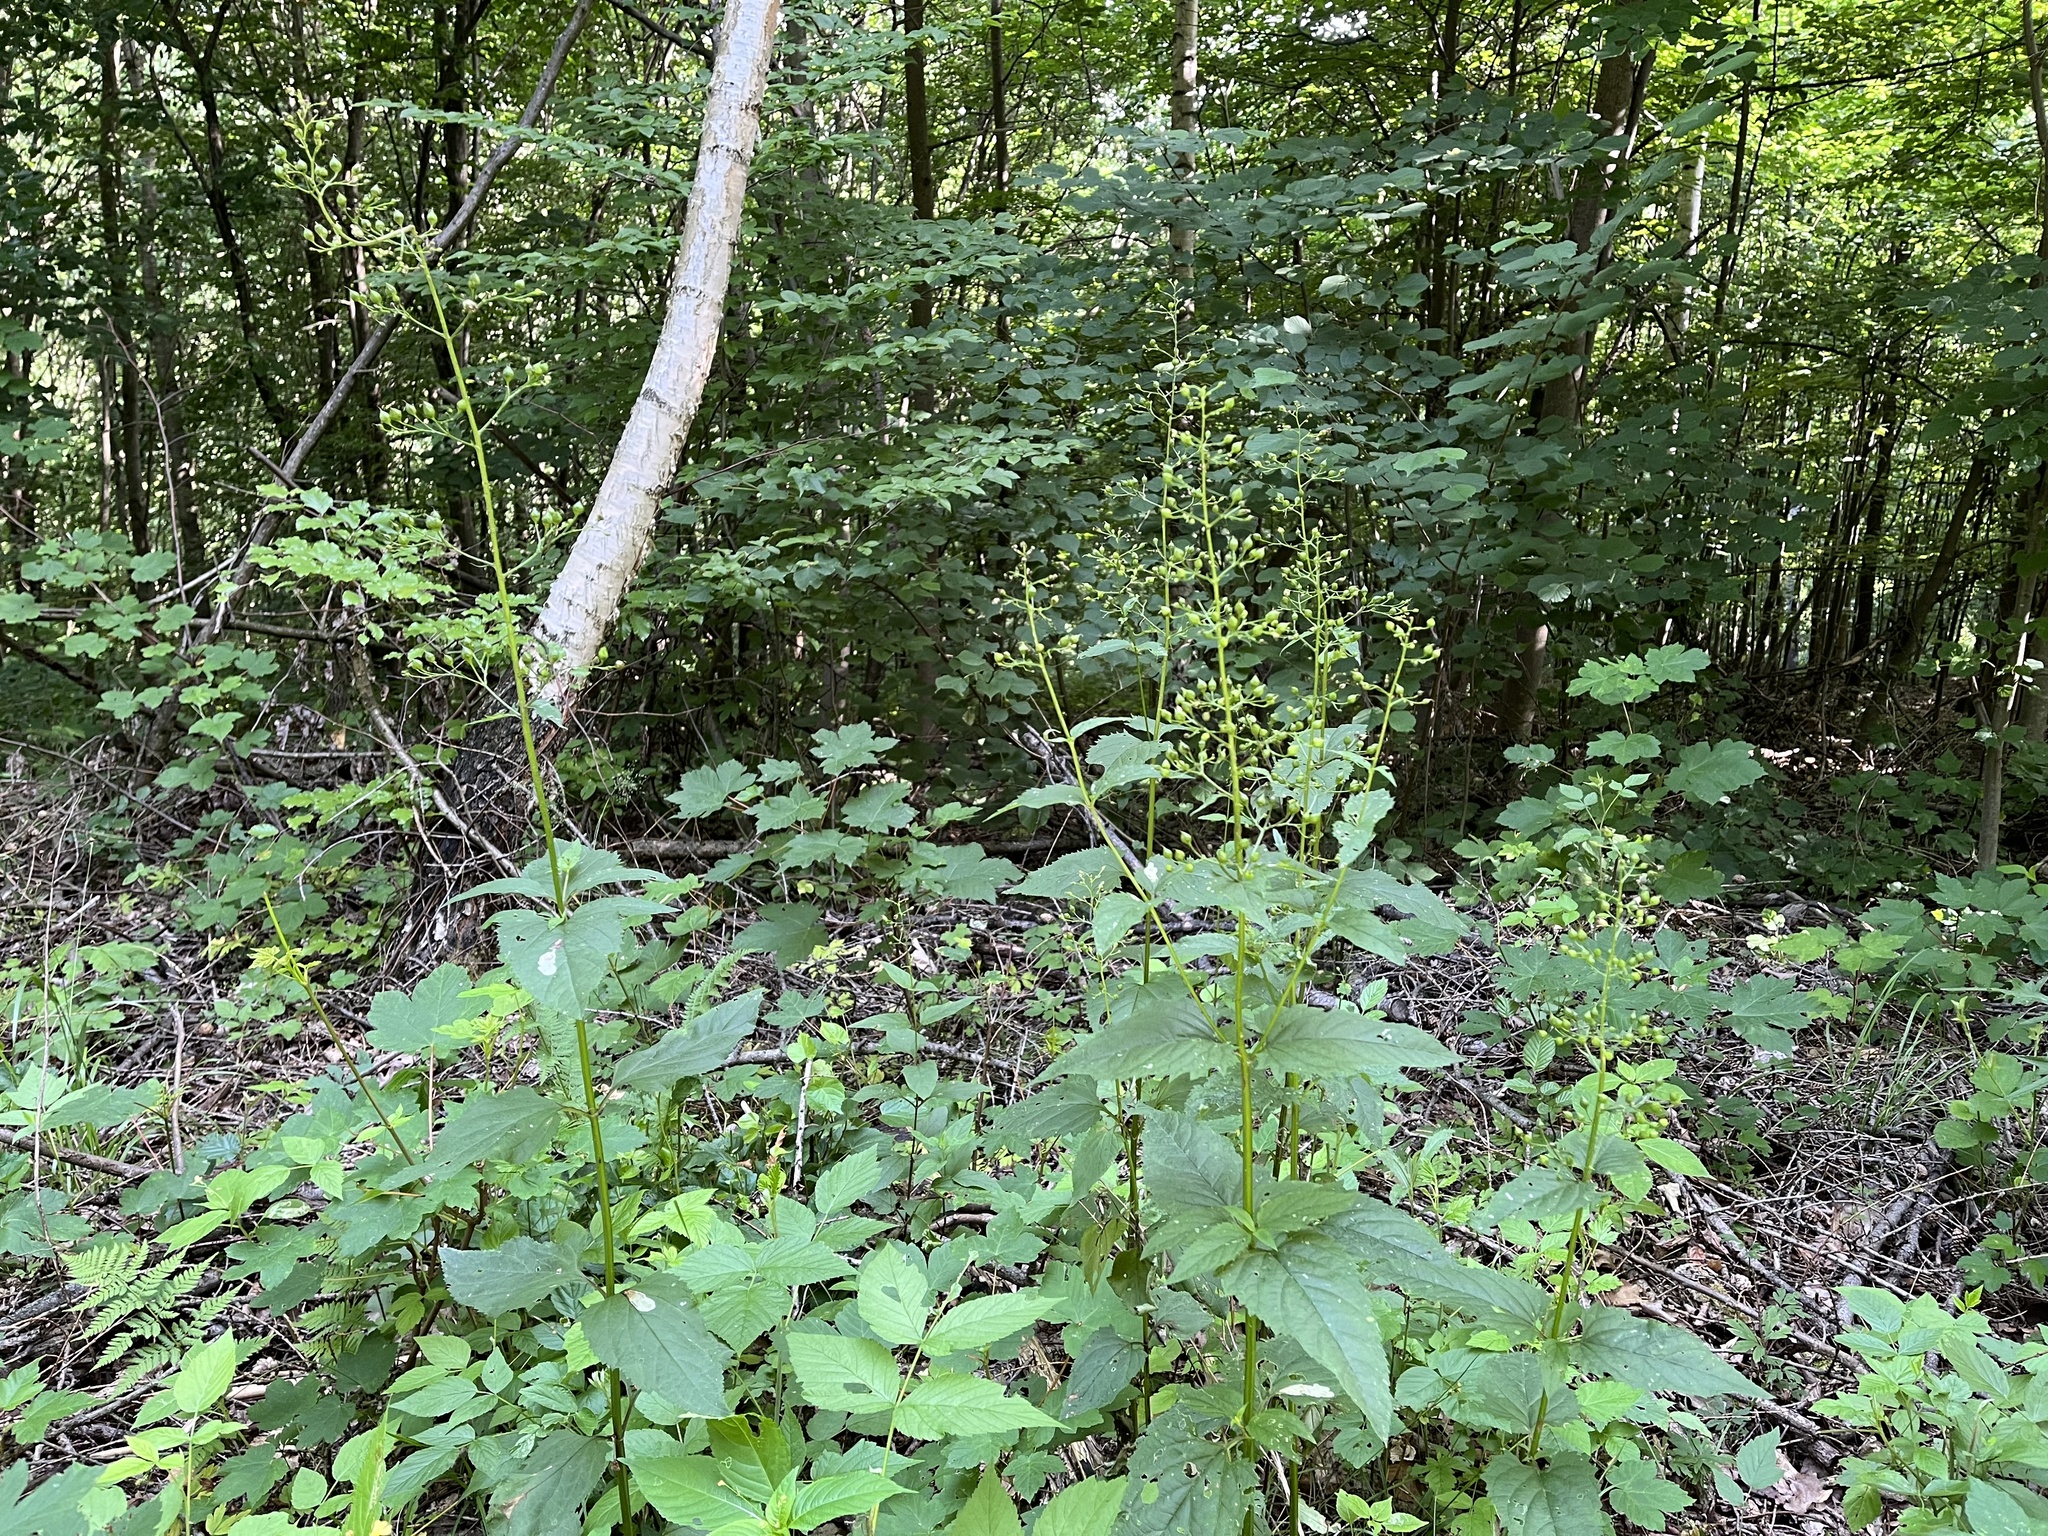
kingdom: Plantae
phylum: Tracheophyta
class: Magnoliopsida
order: Lamiales
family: Scrophulariaceae
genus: Scrophularia
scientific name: Scrophularia nodosa
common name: Common figwort
